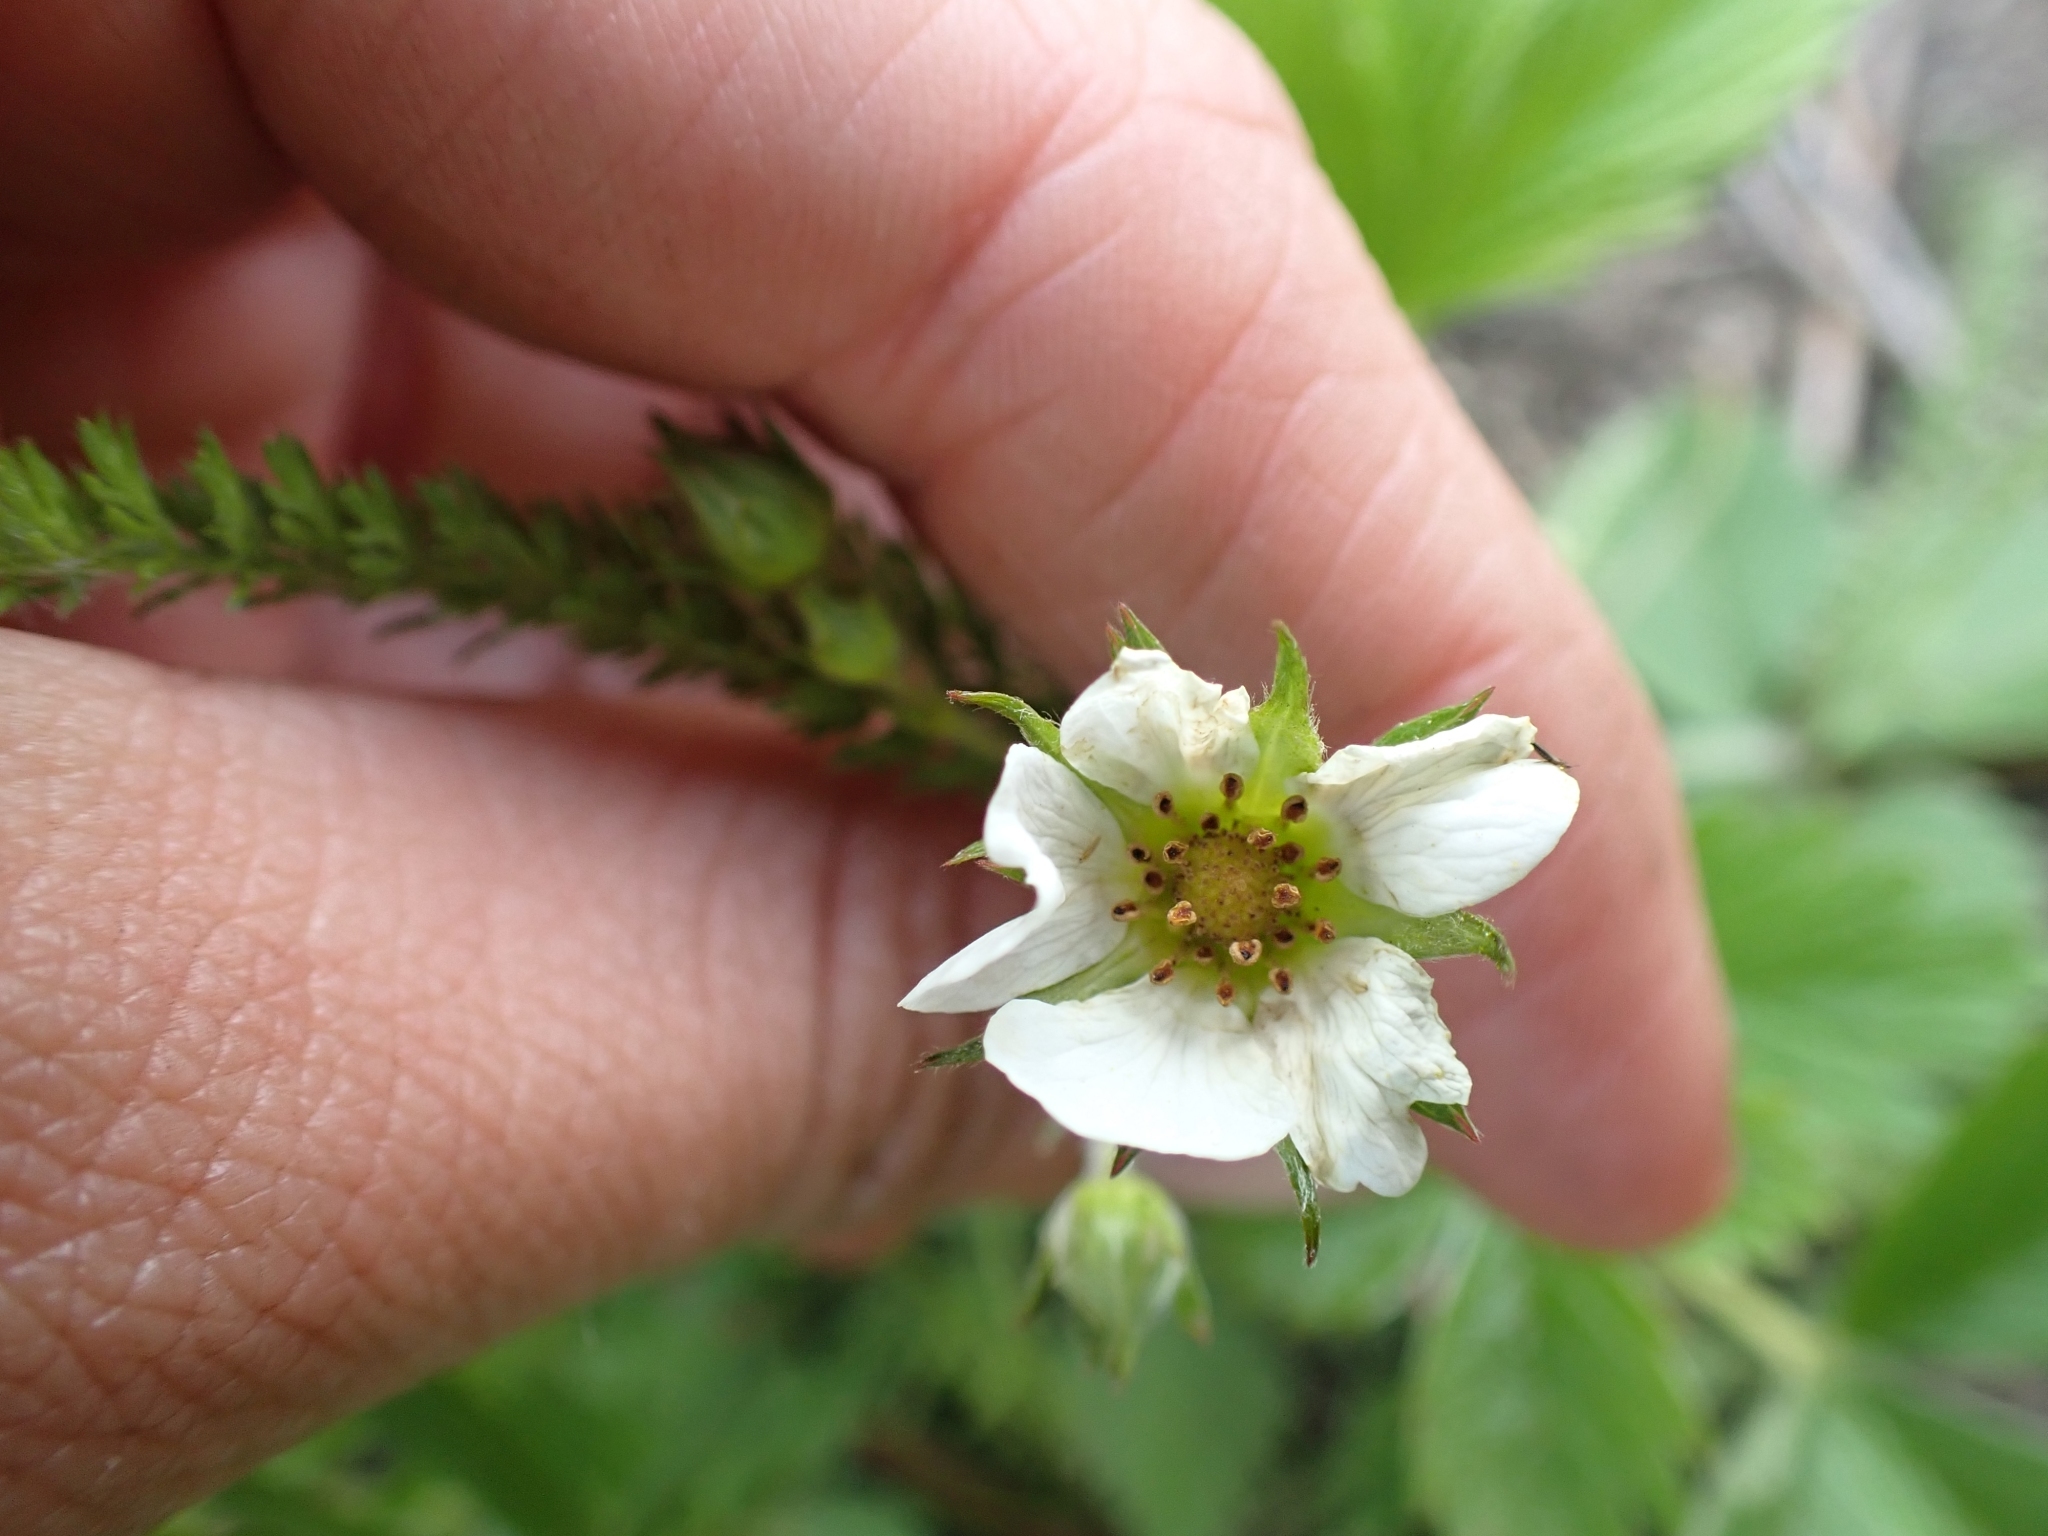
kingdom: Plantae
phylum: Tracheophyta
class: Magnoliopsida
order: Rosales
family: Rosaceae
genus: Fragaria
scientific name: Fragaria vesca
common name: Wild strawberry
